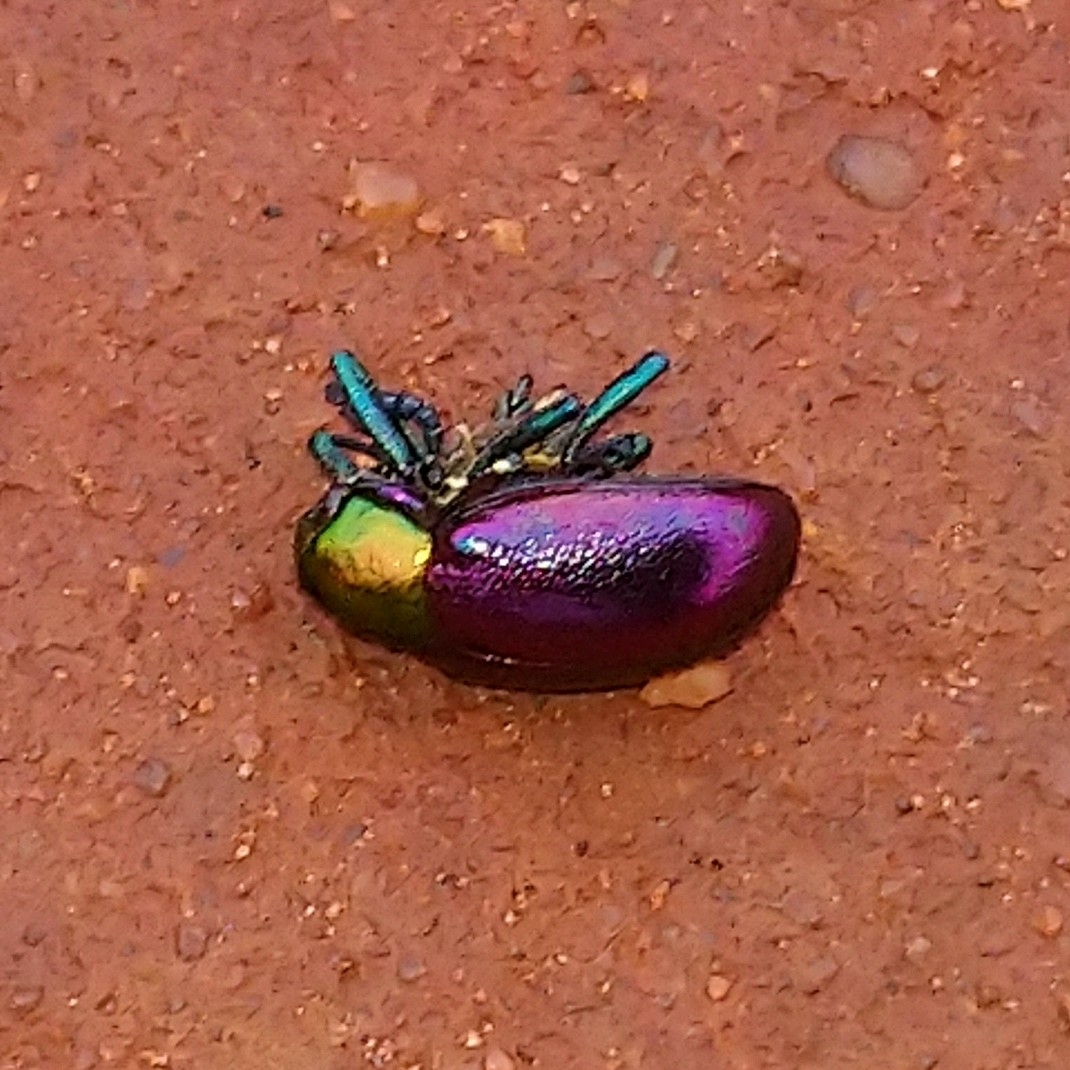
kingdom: Animalia
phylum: Arthropoda
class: Insecta
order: Coleoptera
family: Chrysomelidae
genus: Platycorynus
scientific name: Platycorynus dejeani
